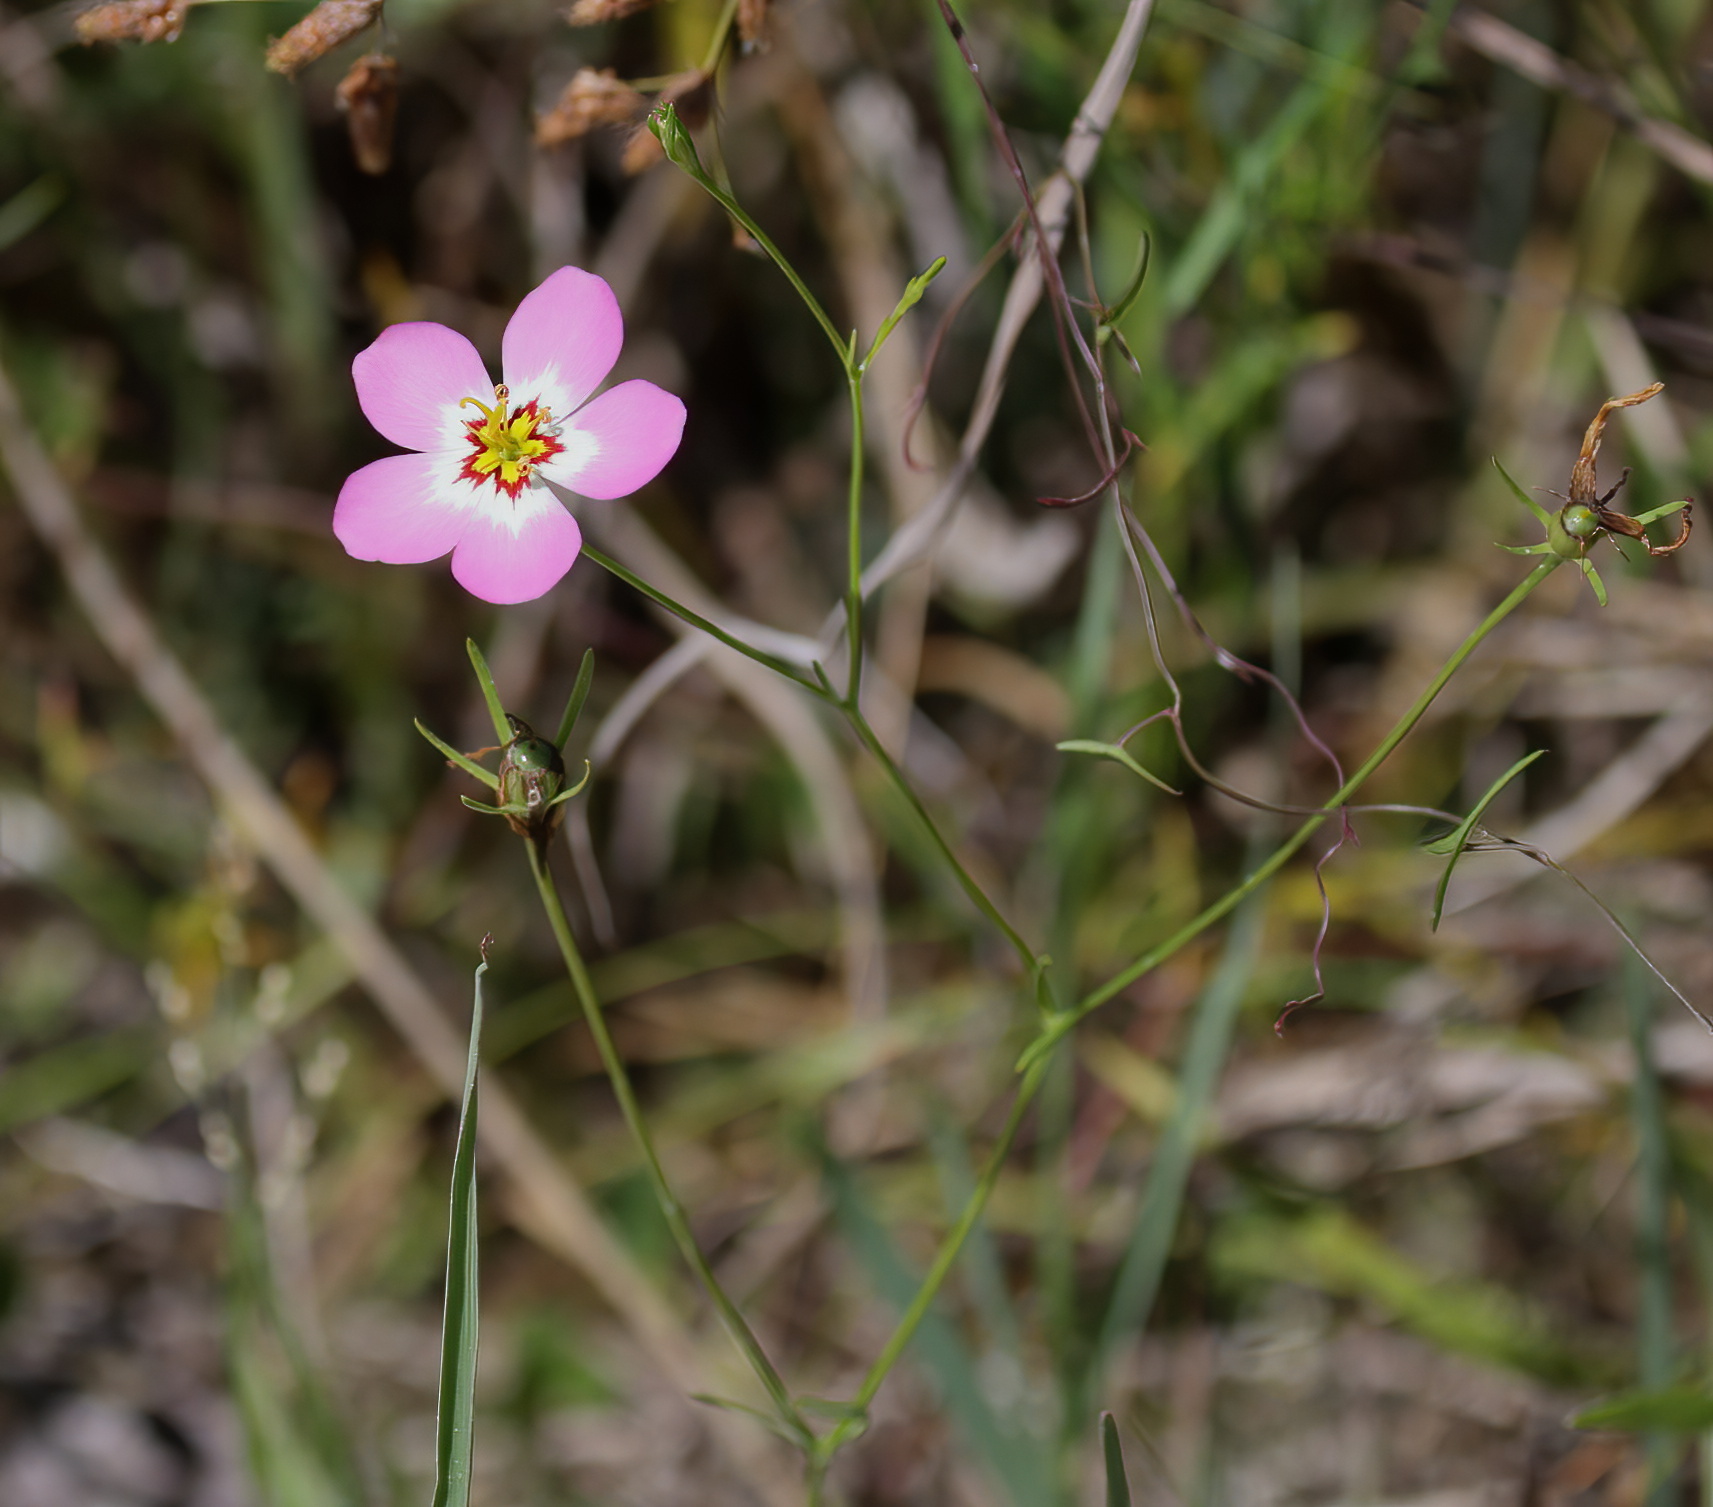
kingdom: Plantae
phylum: Tracheophyta
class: Magnoliopsida
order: Gentianales
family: Gentianaceae
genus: Sabatia
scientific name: Sabatia stellaris
